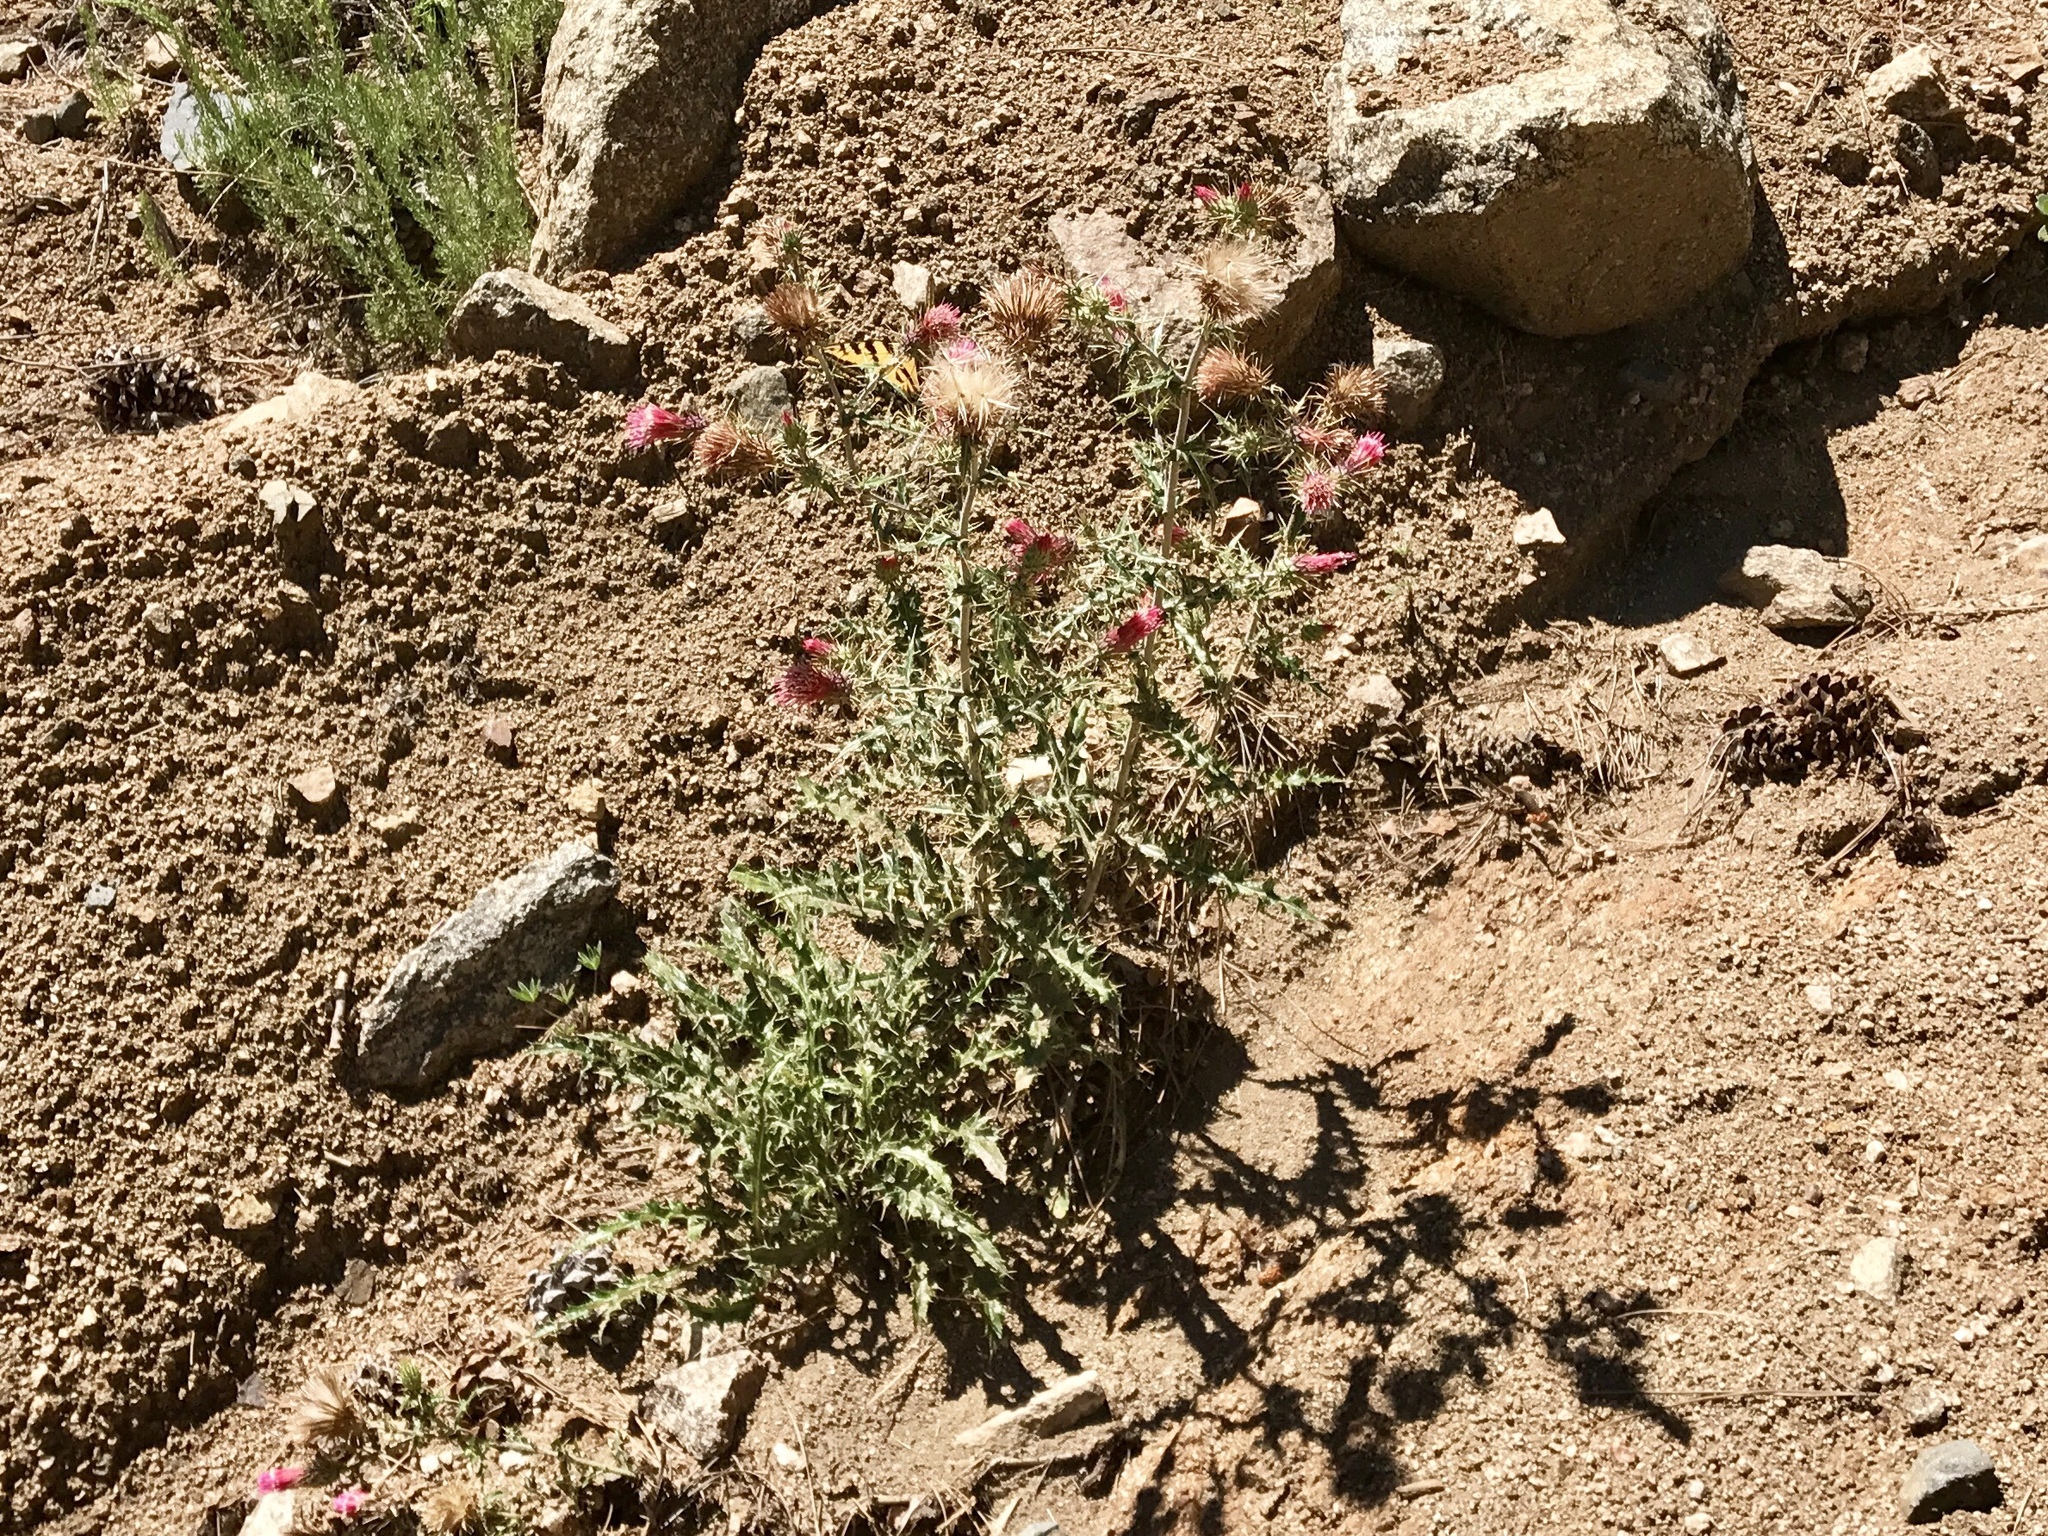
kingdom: Plantae
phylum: Tracheophyta
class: Magnoliopsida
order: Asterales
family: Asteraceae
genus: Cirsium
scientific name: Cirsium arizonicum
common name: Arizona thistle
